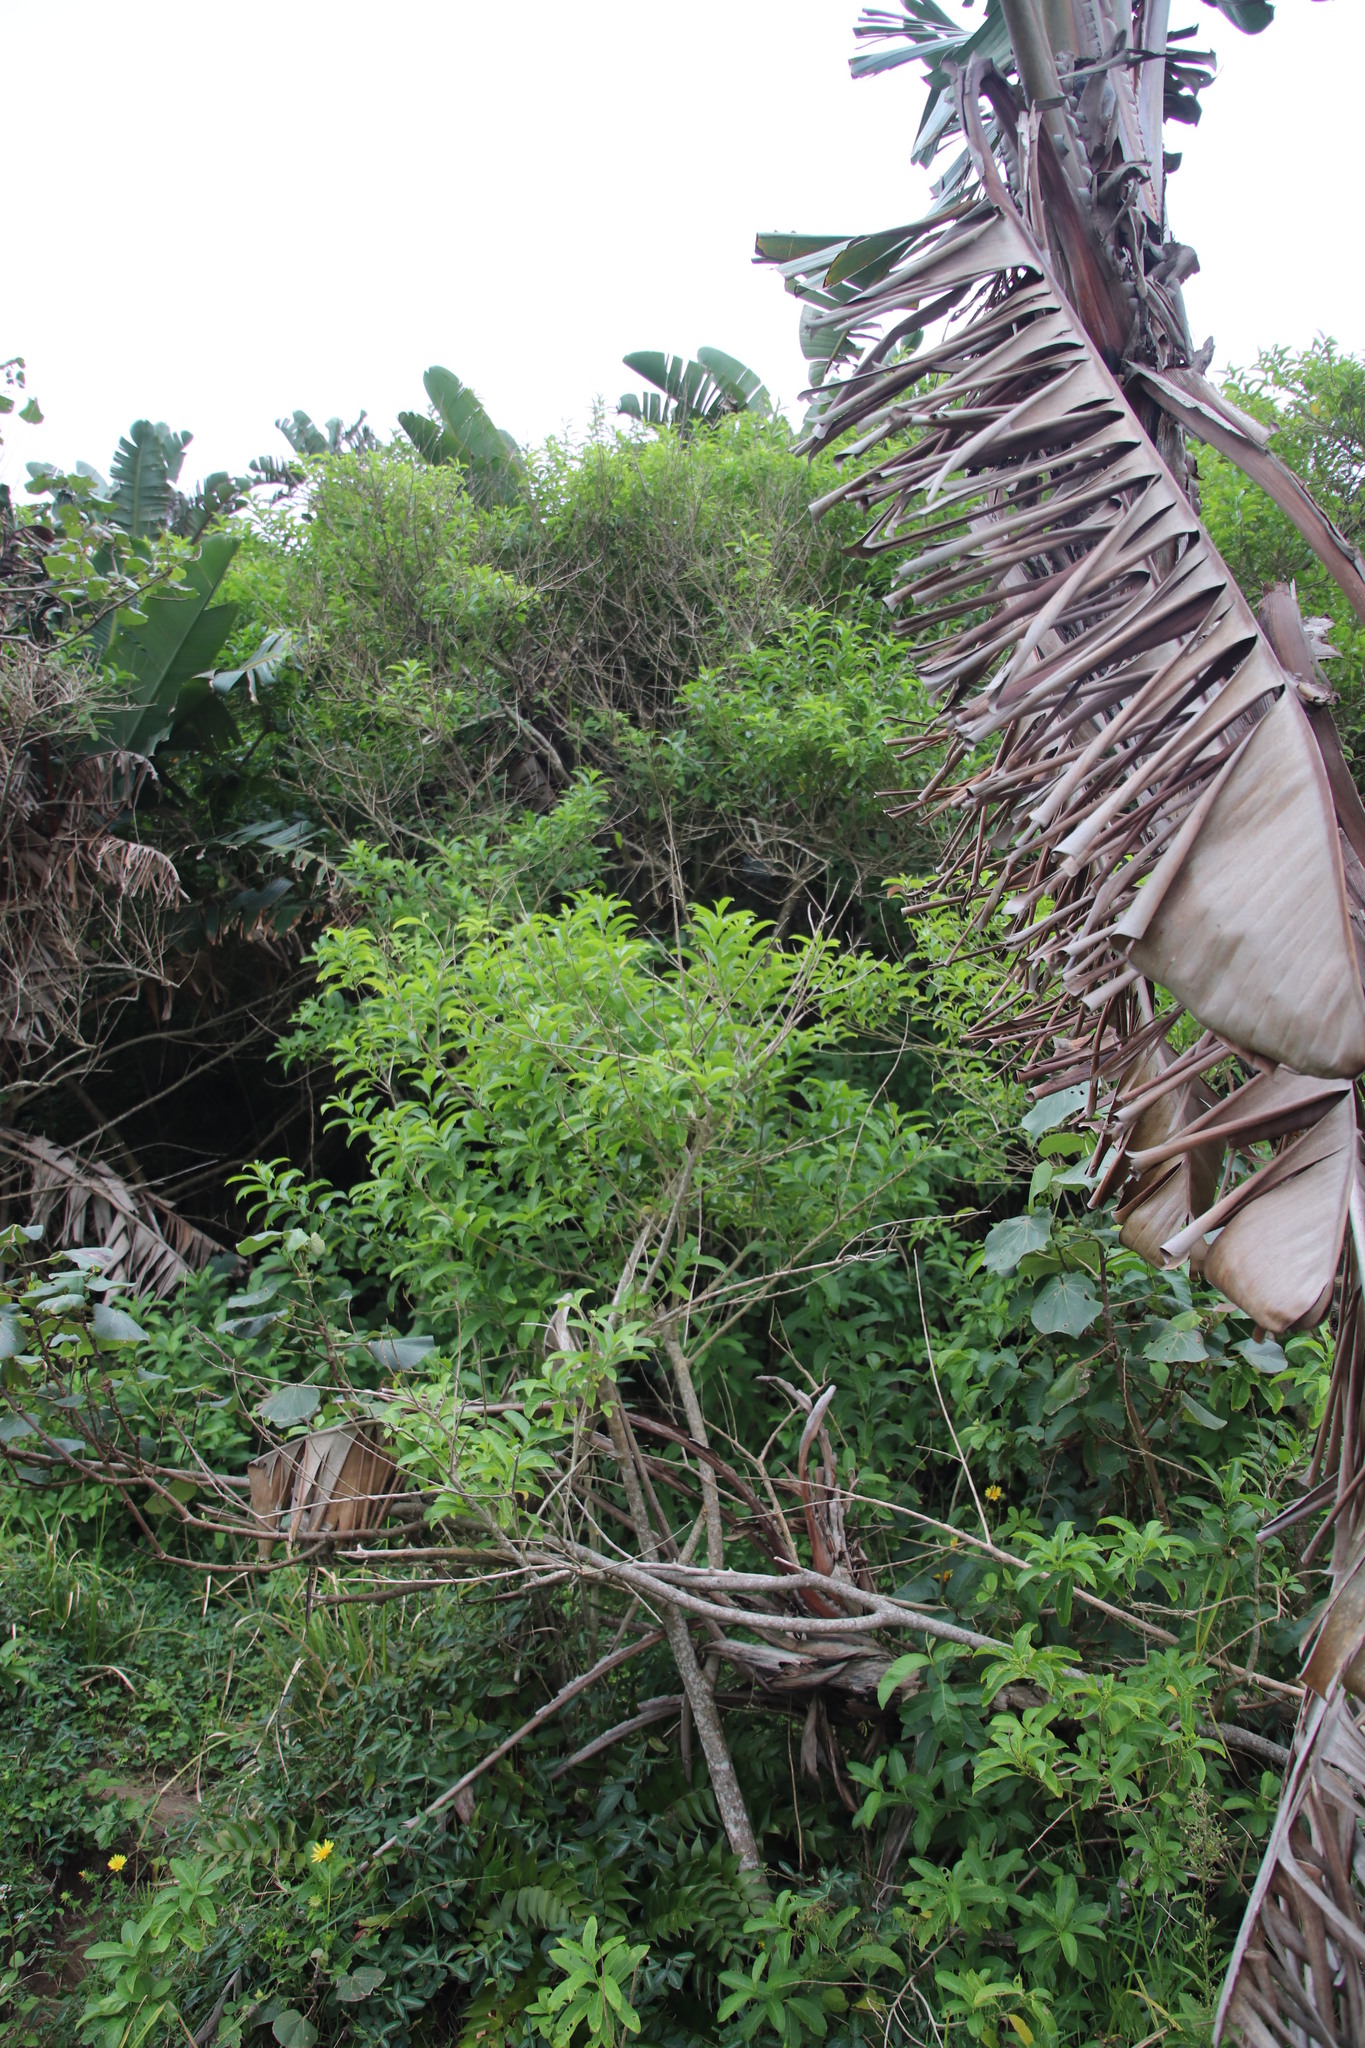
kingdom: Plantae
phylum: Tracheophyta
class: Magnoliopsida
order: Solanales
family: Solanaceae
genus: Cestrum
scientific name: Cestrum laevigatum
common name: Inkberry
